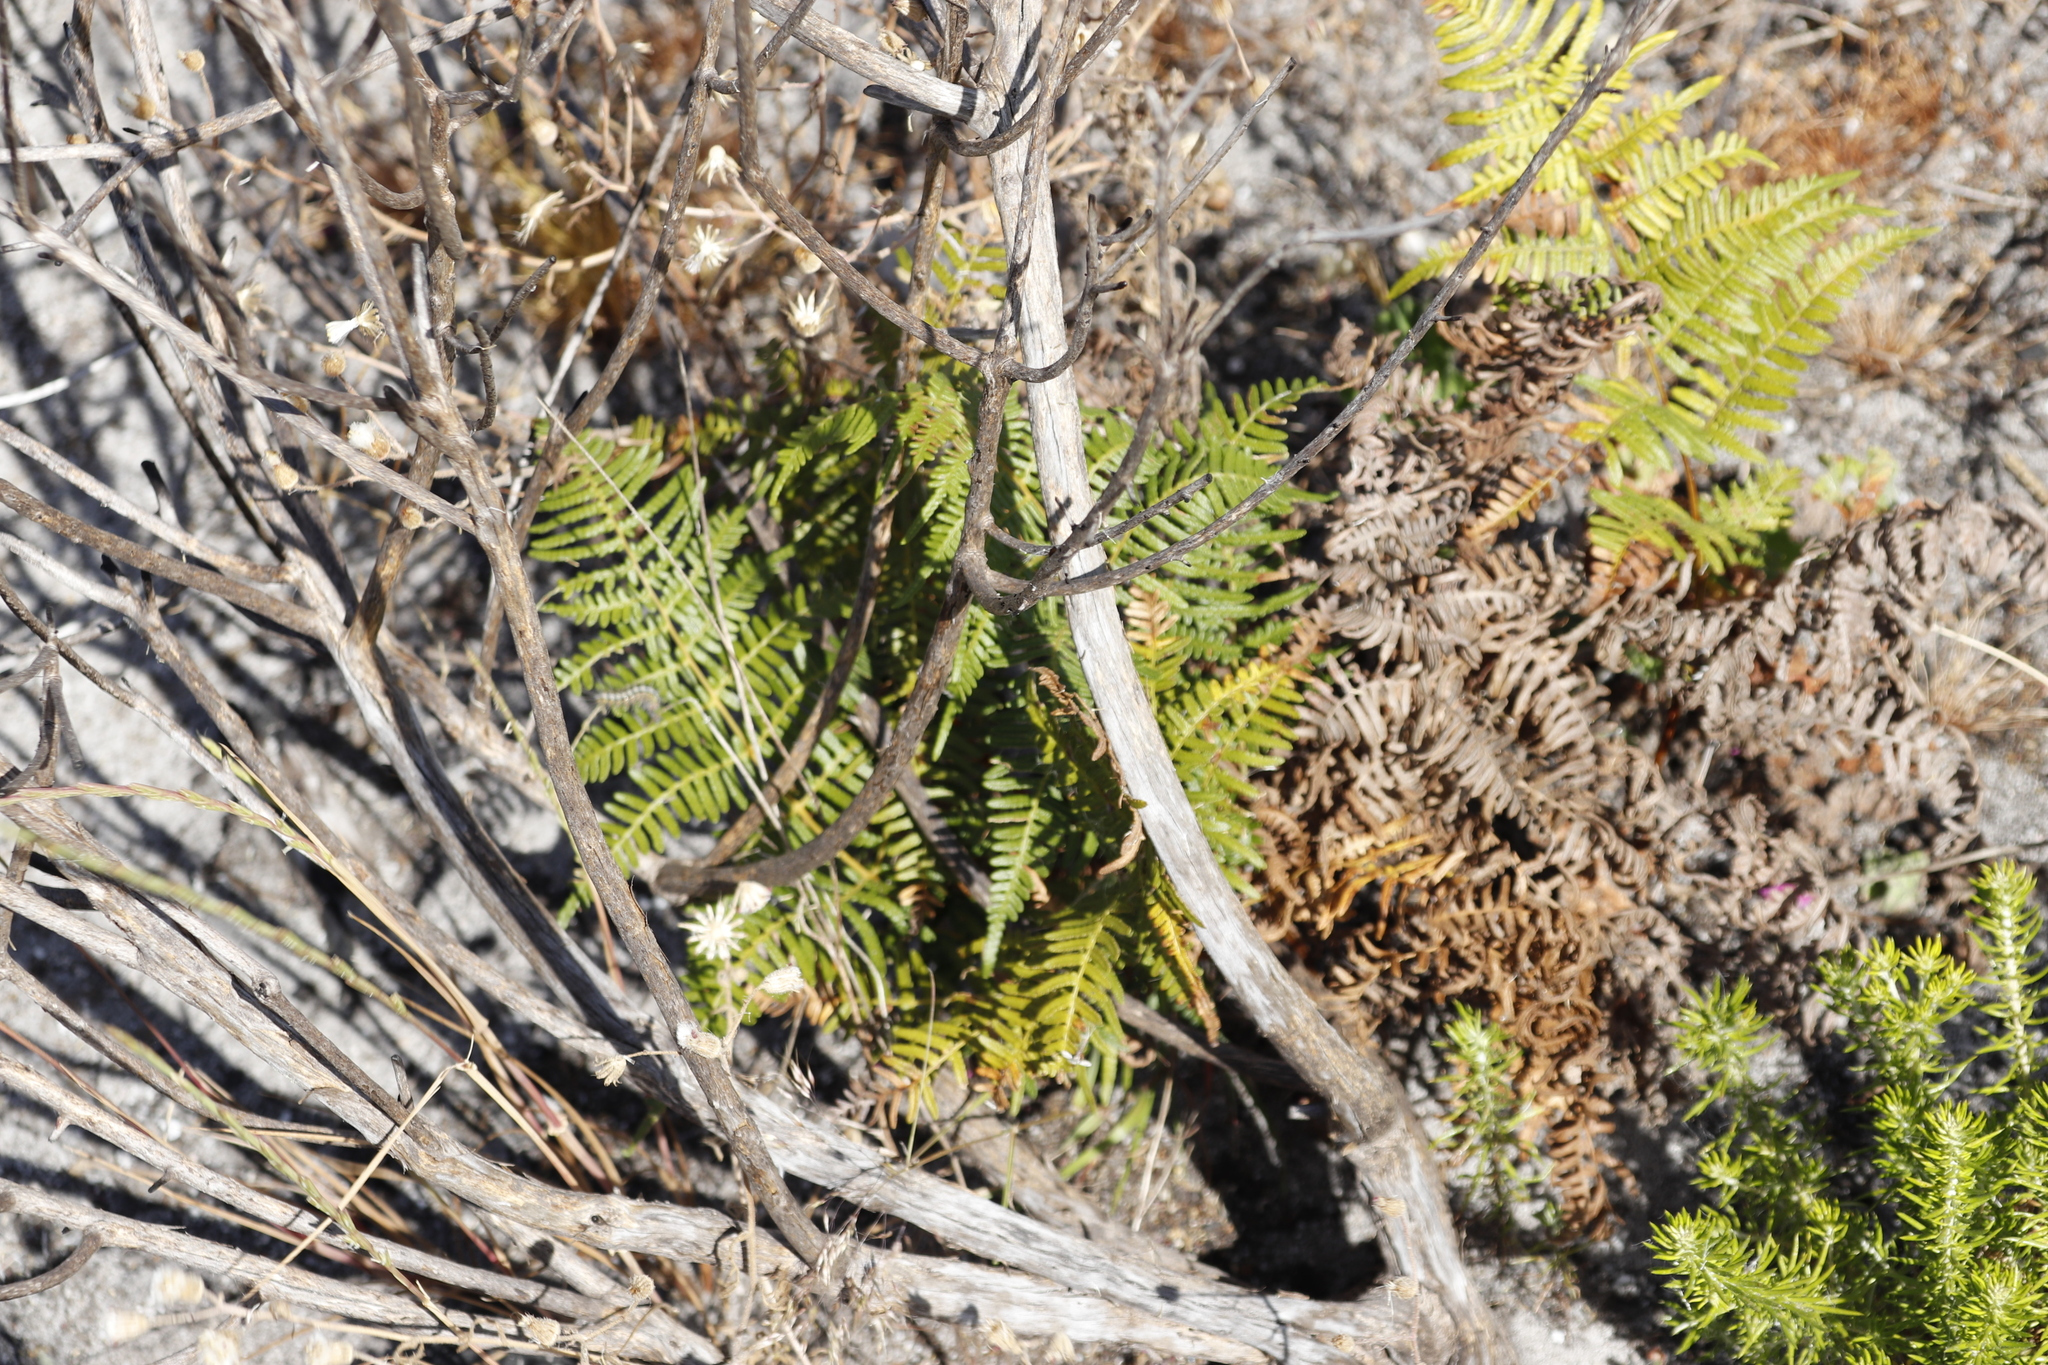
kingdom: Plantae
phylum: Tracheophyta
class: Polypodiopsida
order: Polypodiales
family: Dennstaedtiaceae
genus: Pteridium
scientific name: Pteridium aquilinum
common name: Bracken
